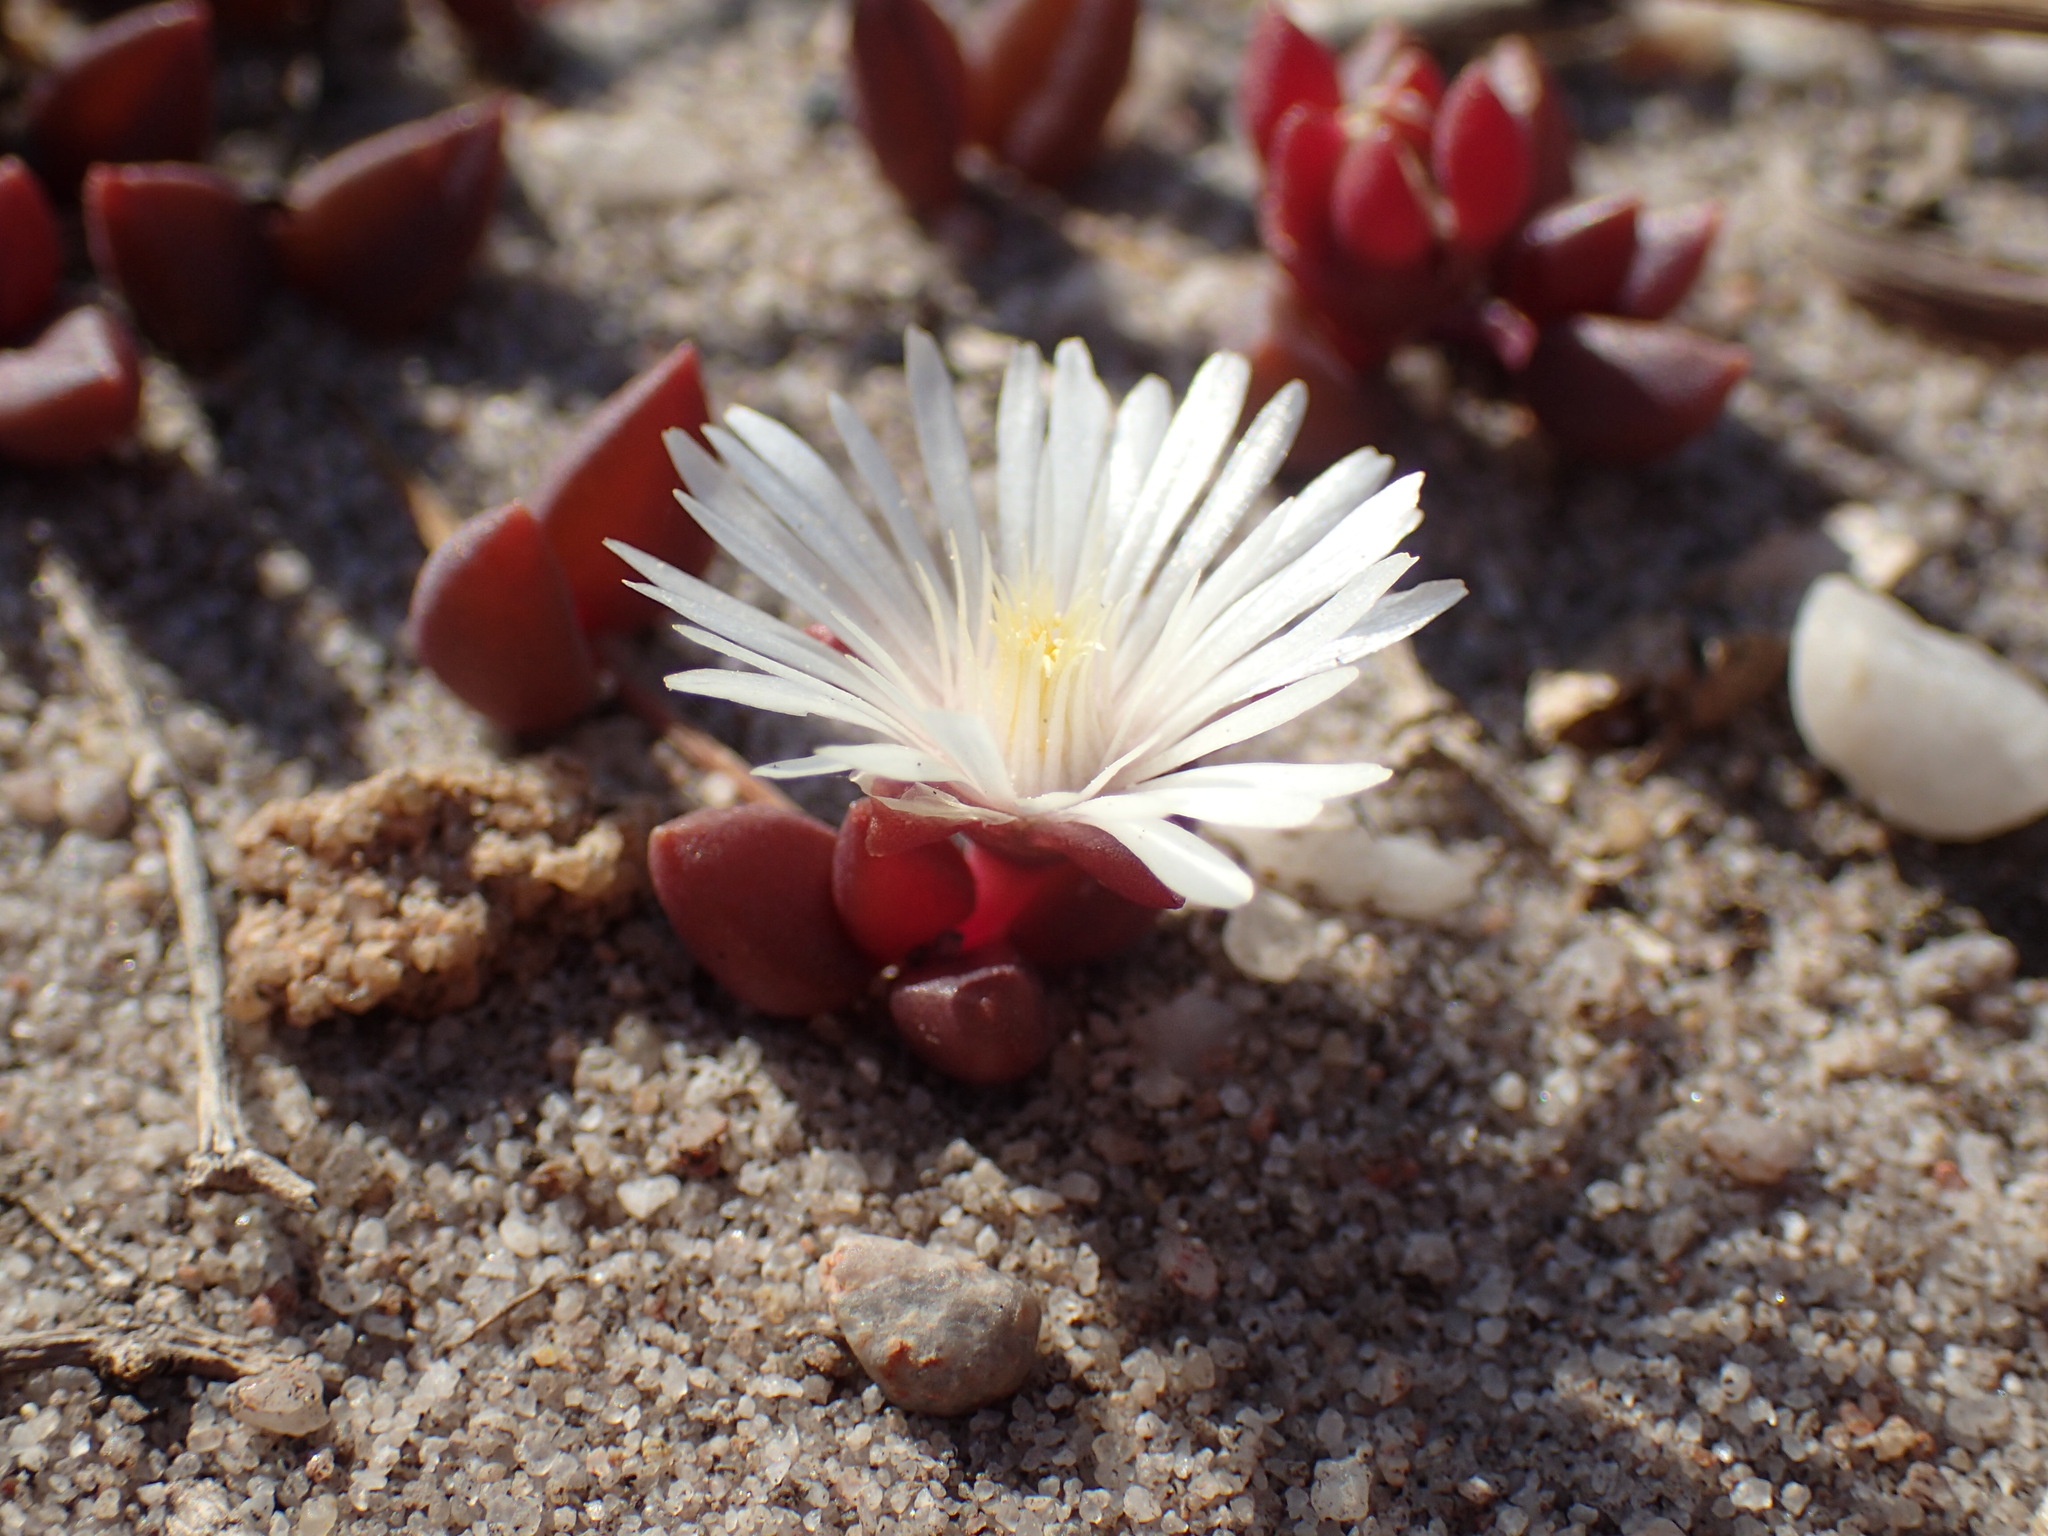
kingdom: Plantae
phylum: Tracheophyta
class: Magnoliopsida
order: Caryophyllales
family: Aizoaceae
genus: Delosperma
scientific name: Delosperma subpetiolatum
